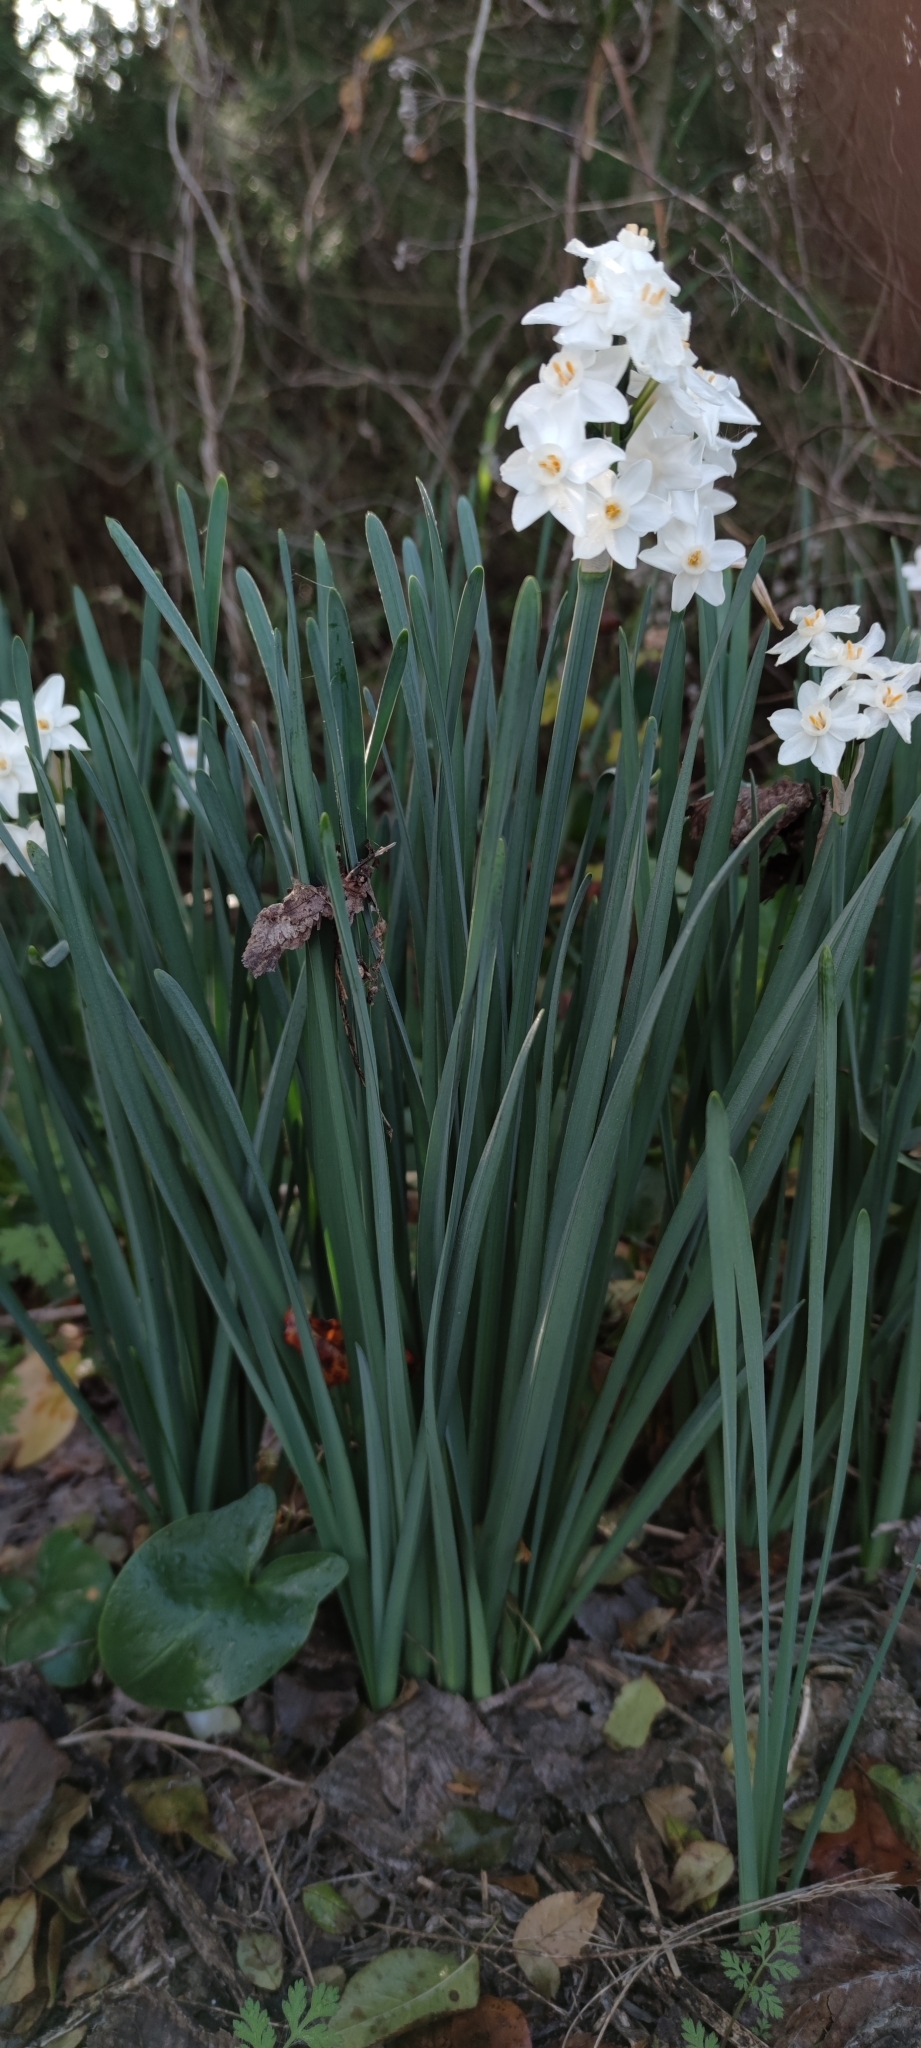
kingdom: Plantae
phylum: Tracheophyta
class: Liliopsida
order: Asparagales
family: Amaryllidaceae
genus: Narcissus
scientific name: Narcissus papyraceus
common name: Paper-white daffodil
